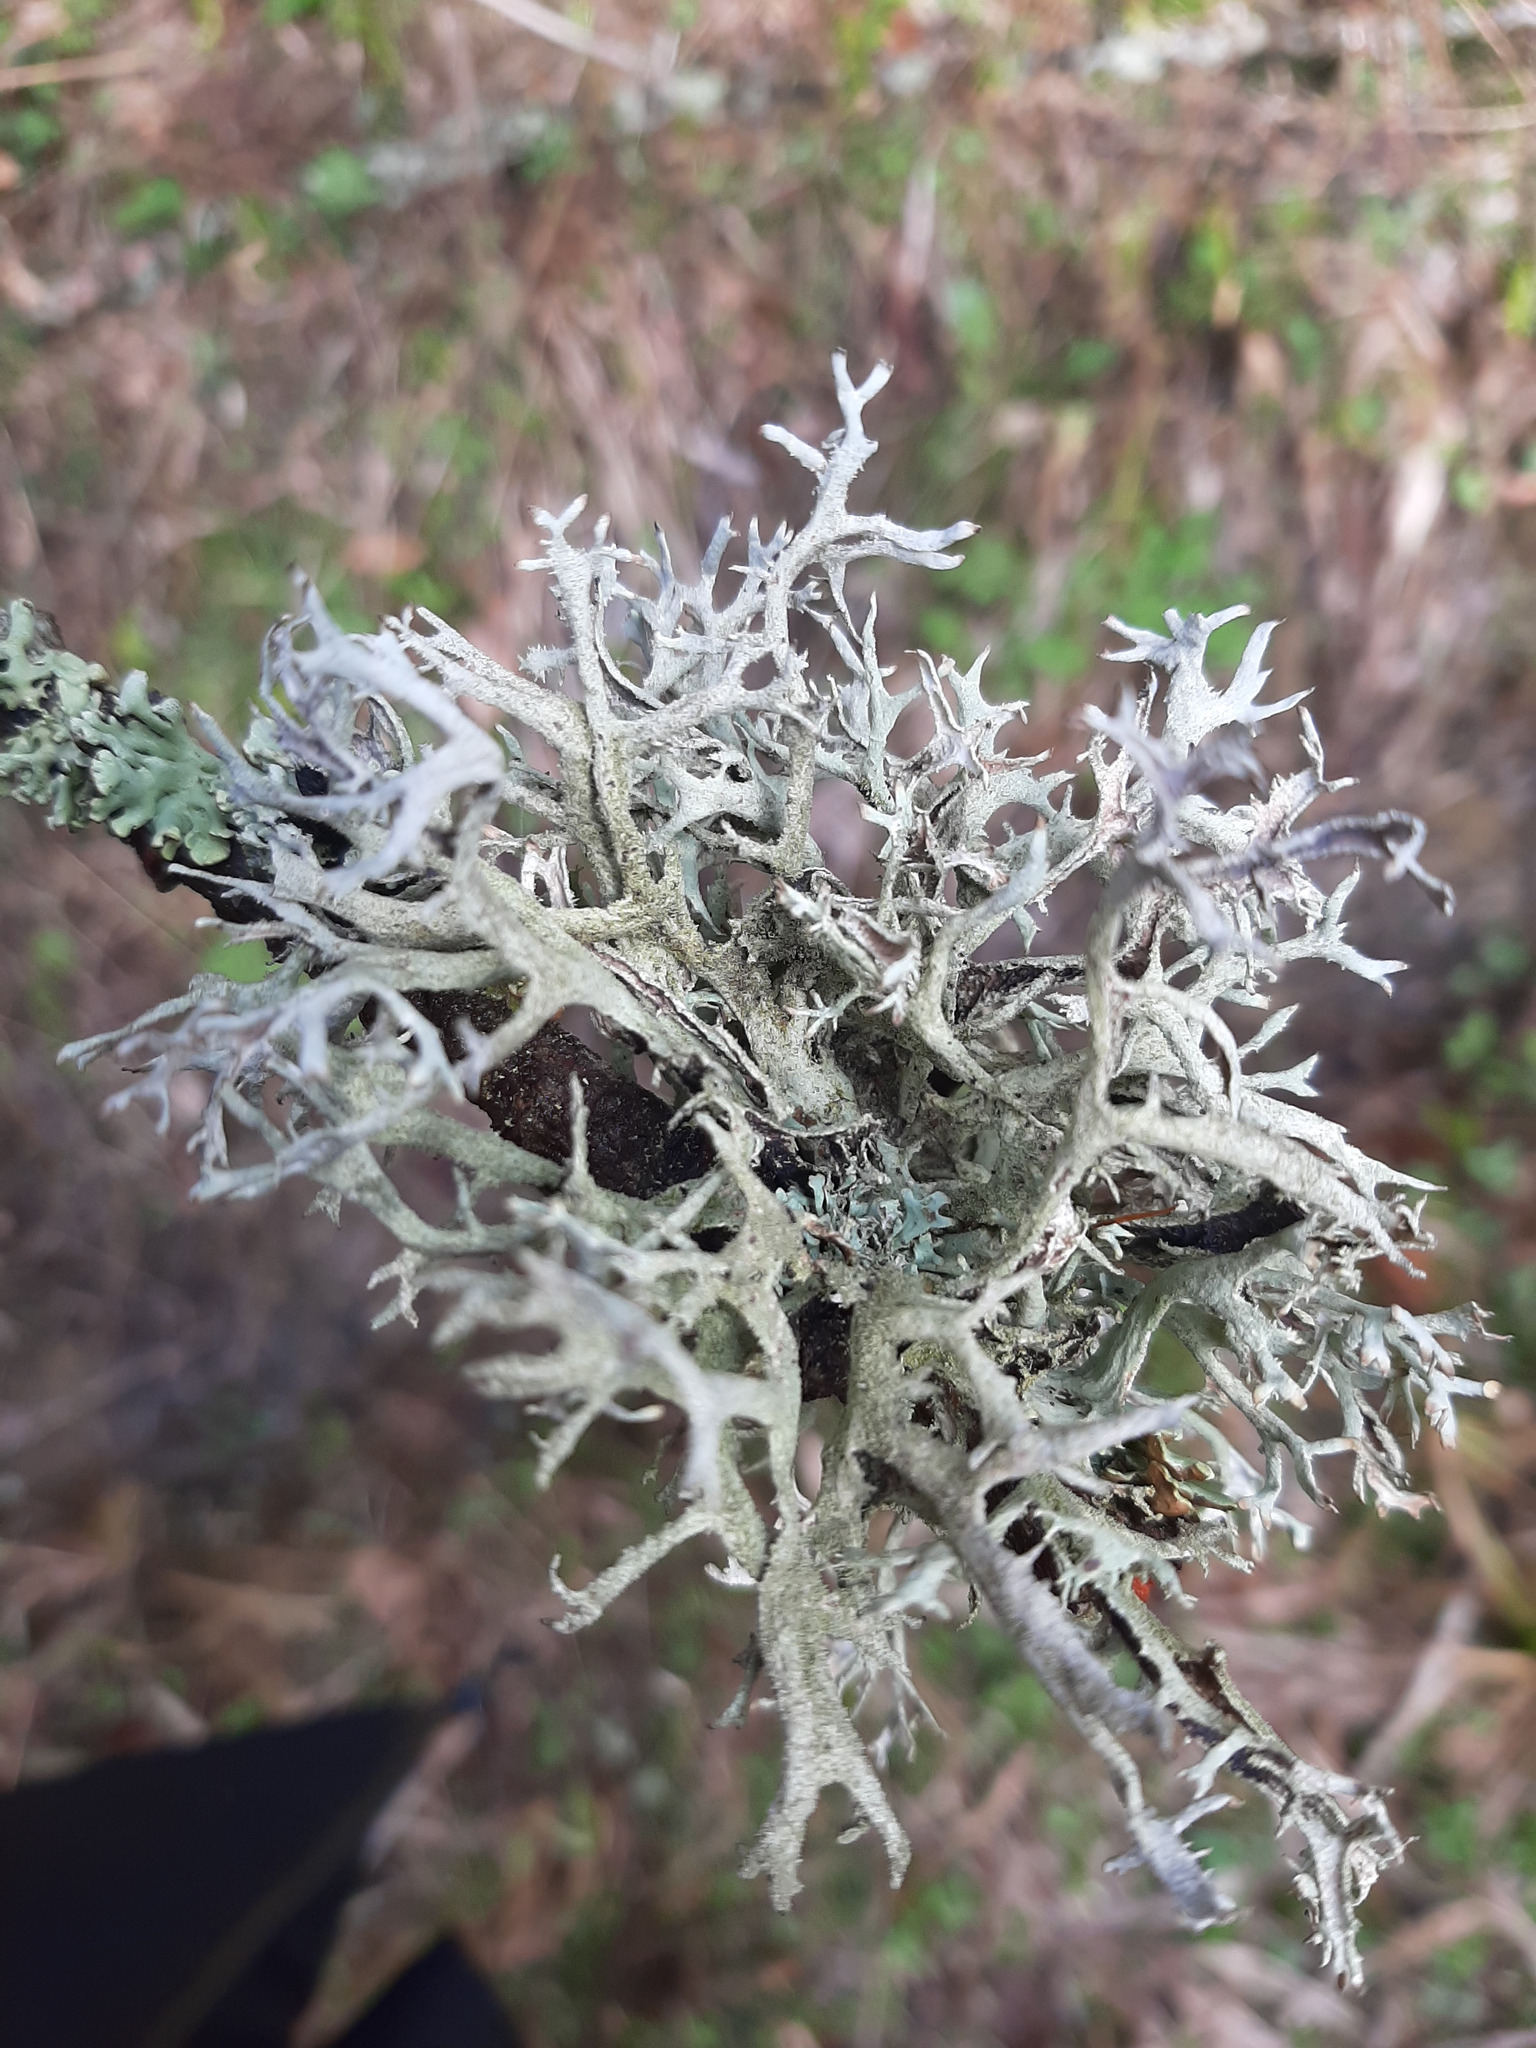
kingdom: Fungi
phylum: Ascomycota
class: Lecanoromycetes
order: Lecanorales
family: Parmeliaceae
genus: Pseudevernia
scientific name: Pseudevernia furfuracea
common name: Tree moss
